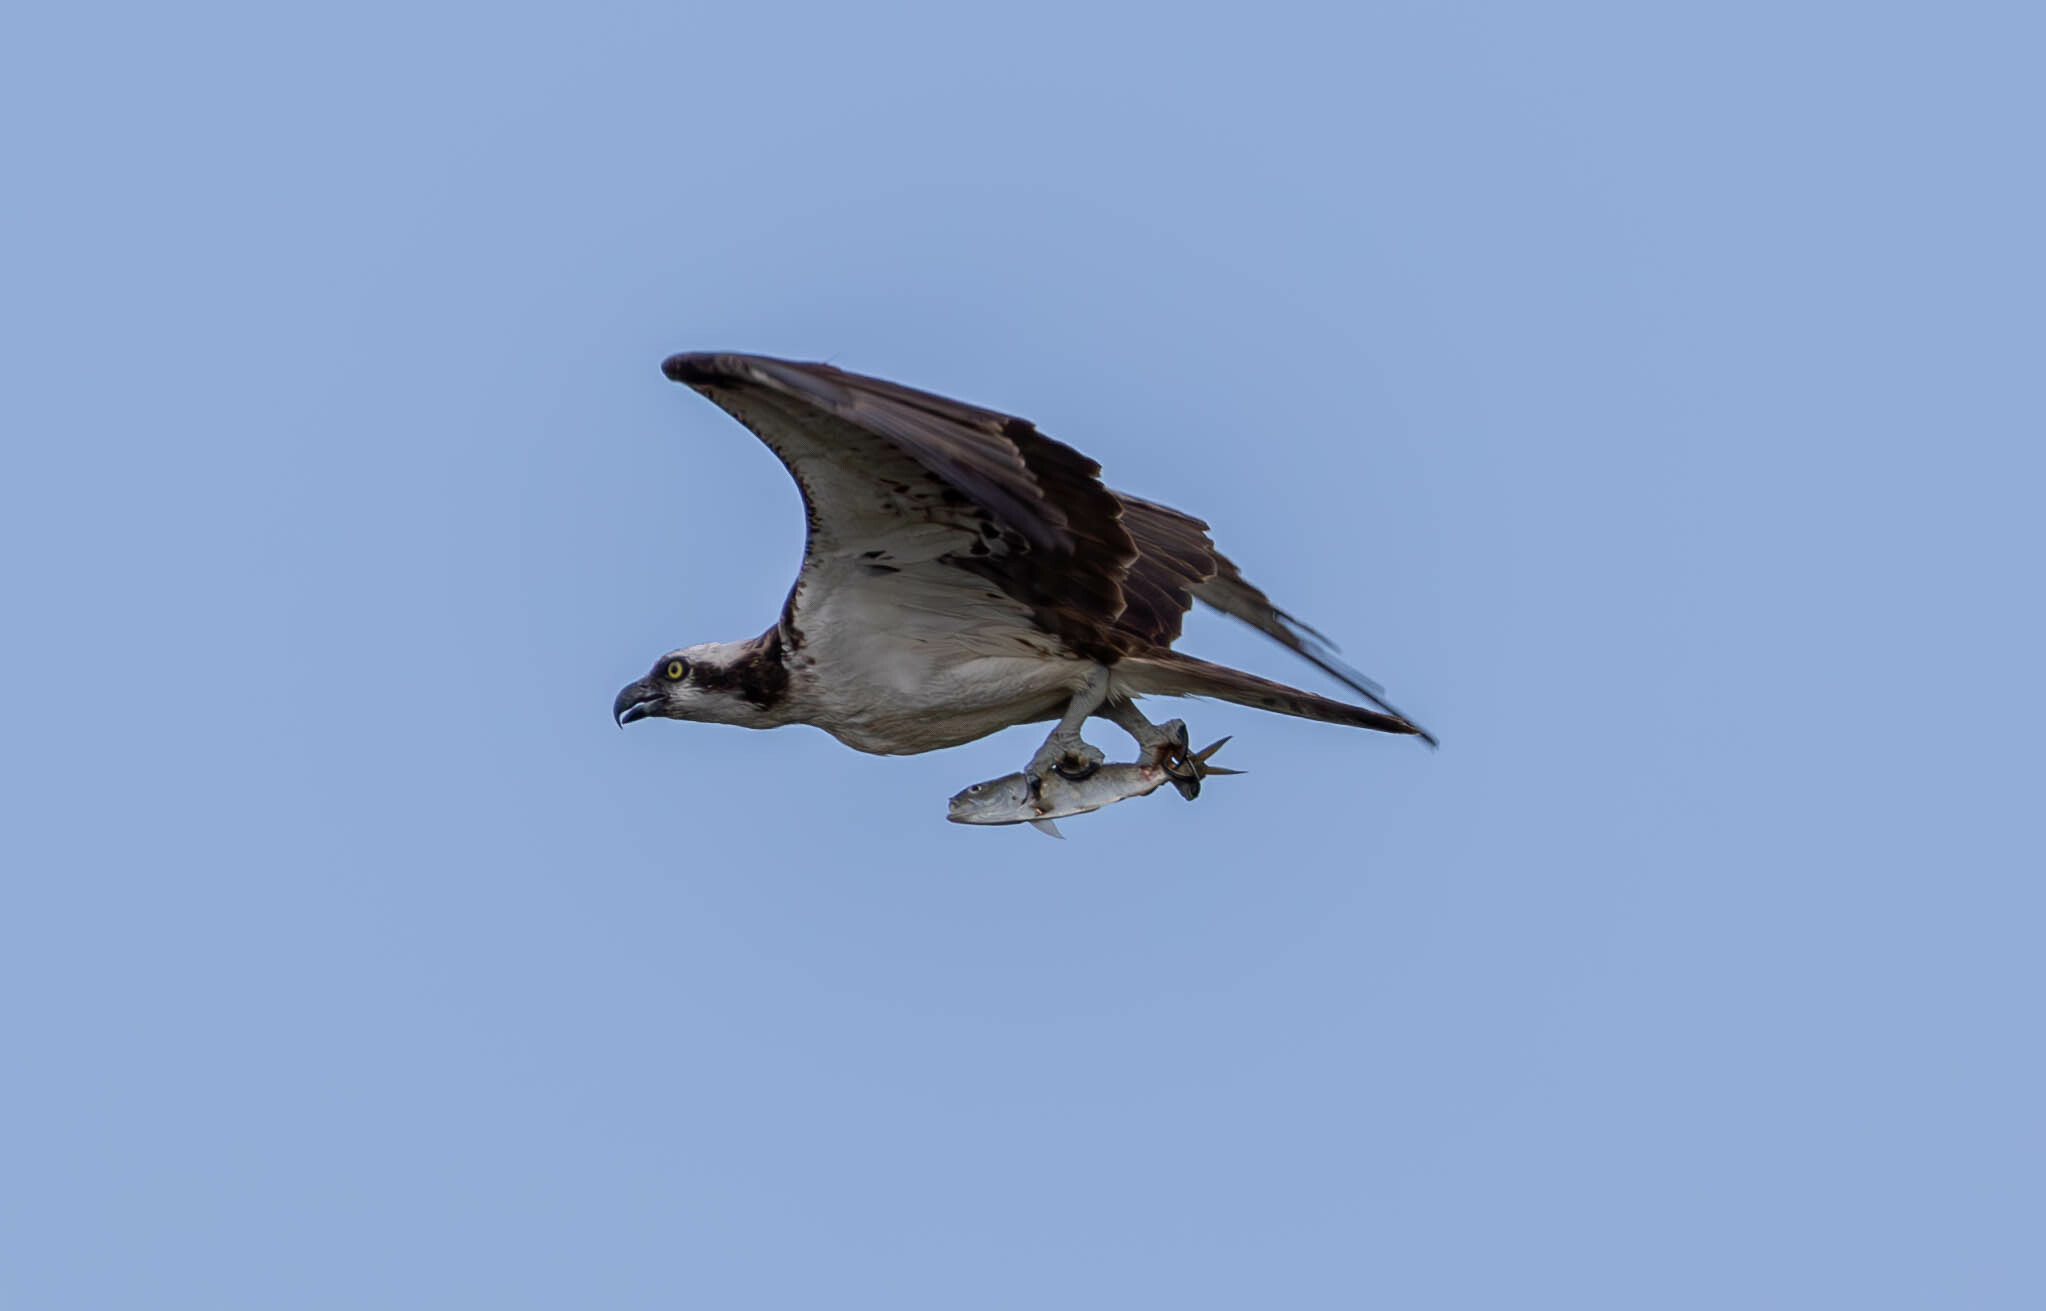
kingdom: Animalia
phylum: Chordata
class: Aves
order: Accipitriformes
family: Pandionidae
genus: Pandion
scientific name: Pandion haliaetus
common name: Osprey
